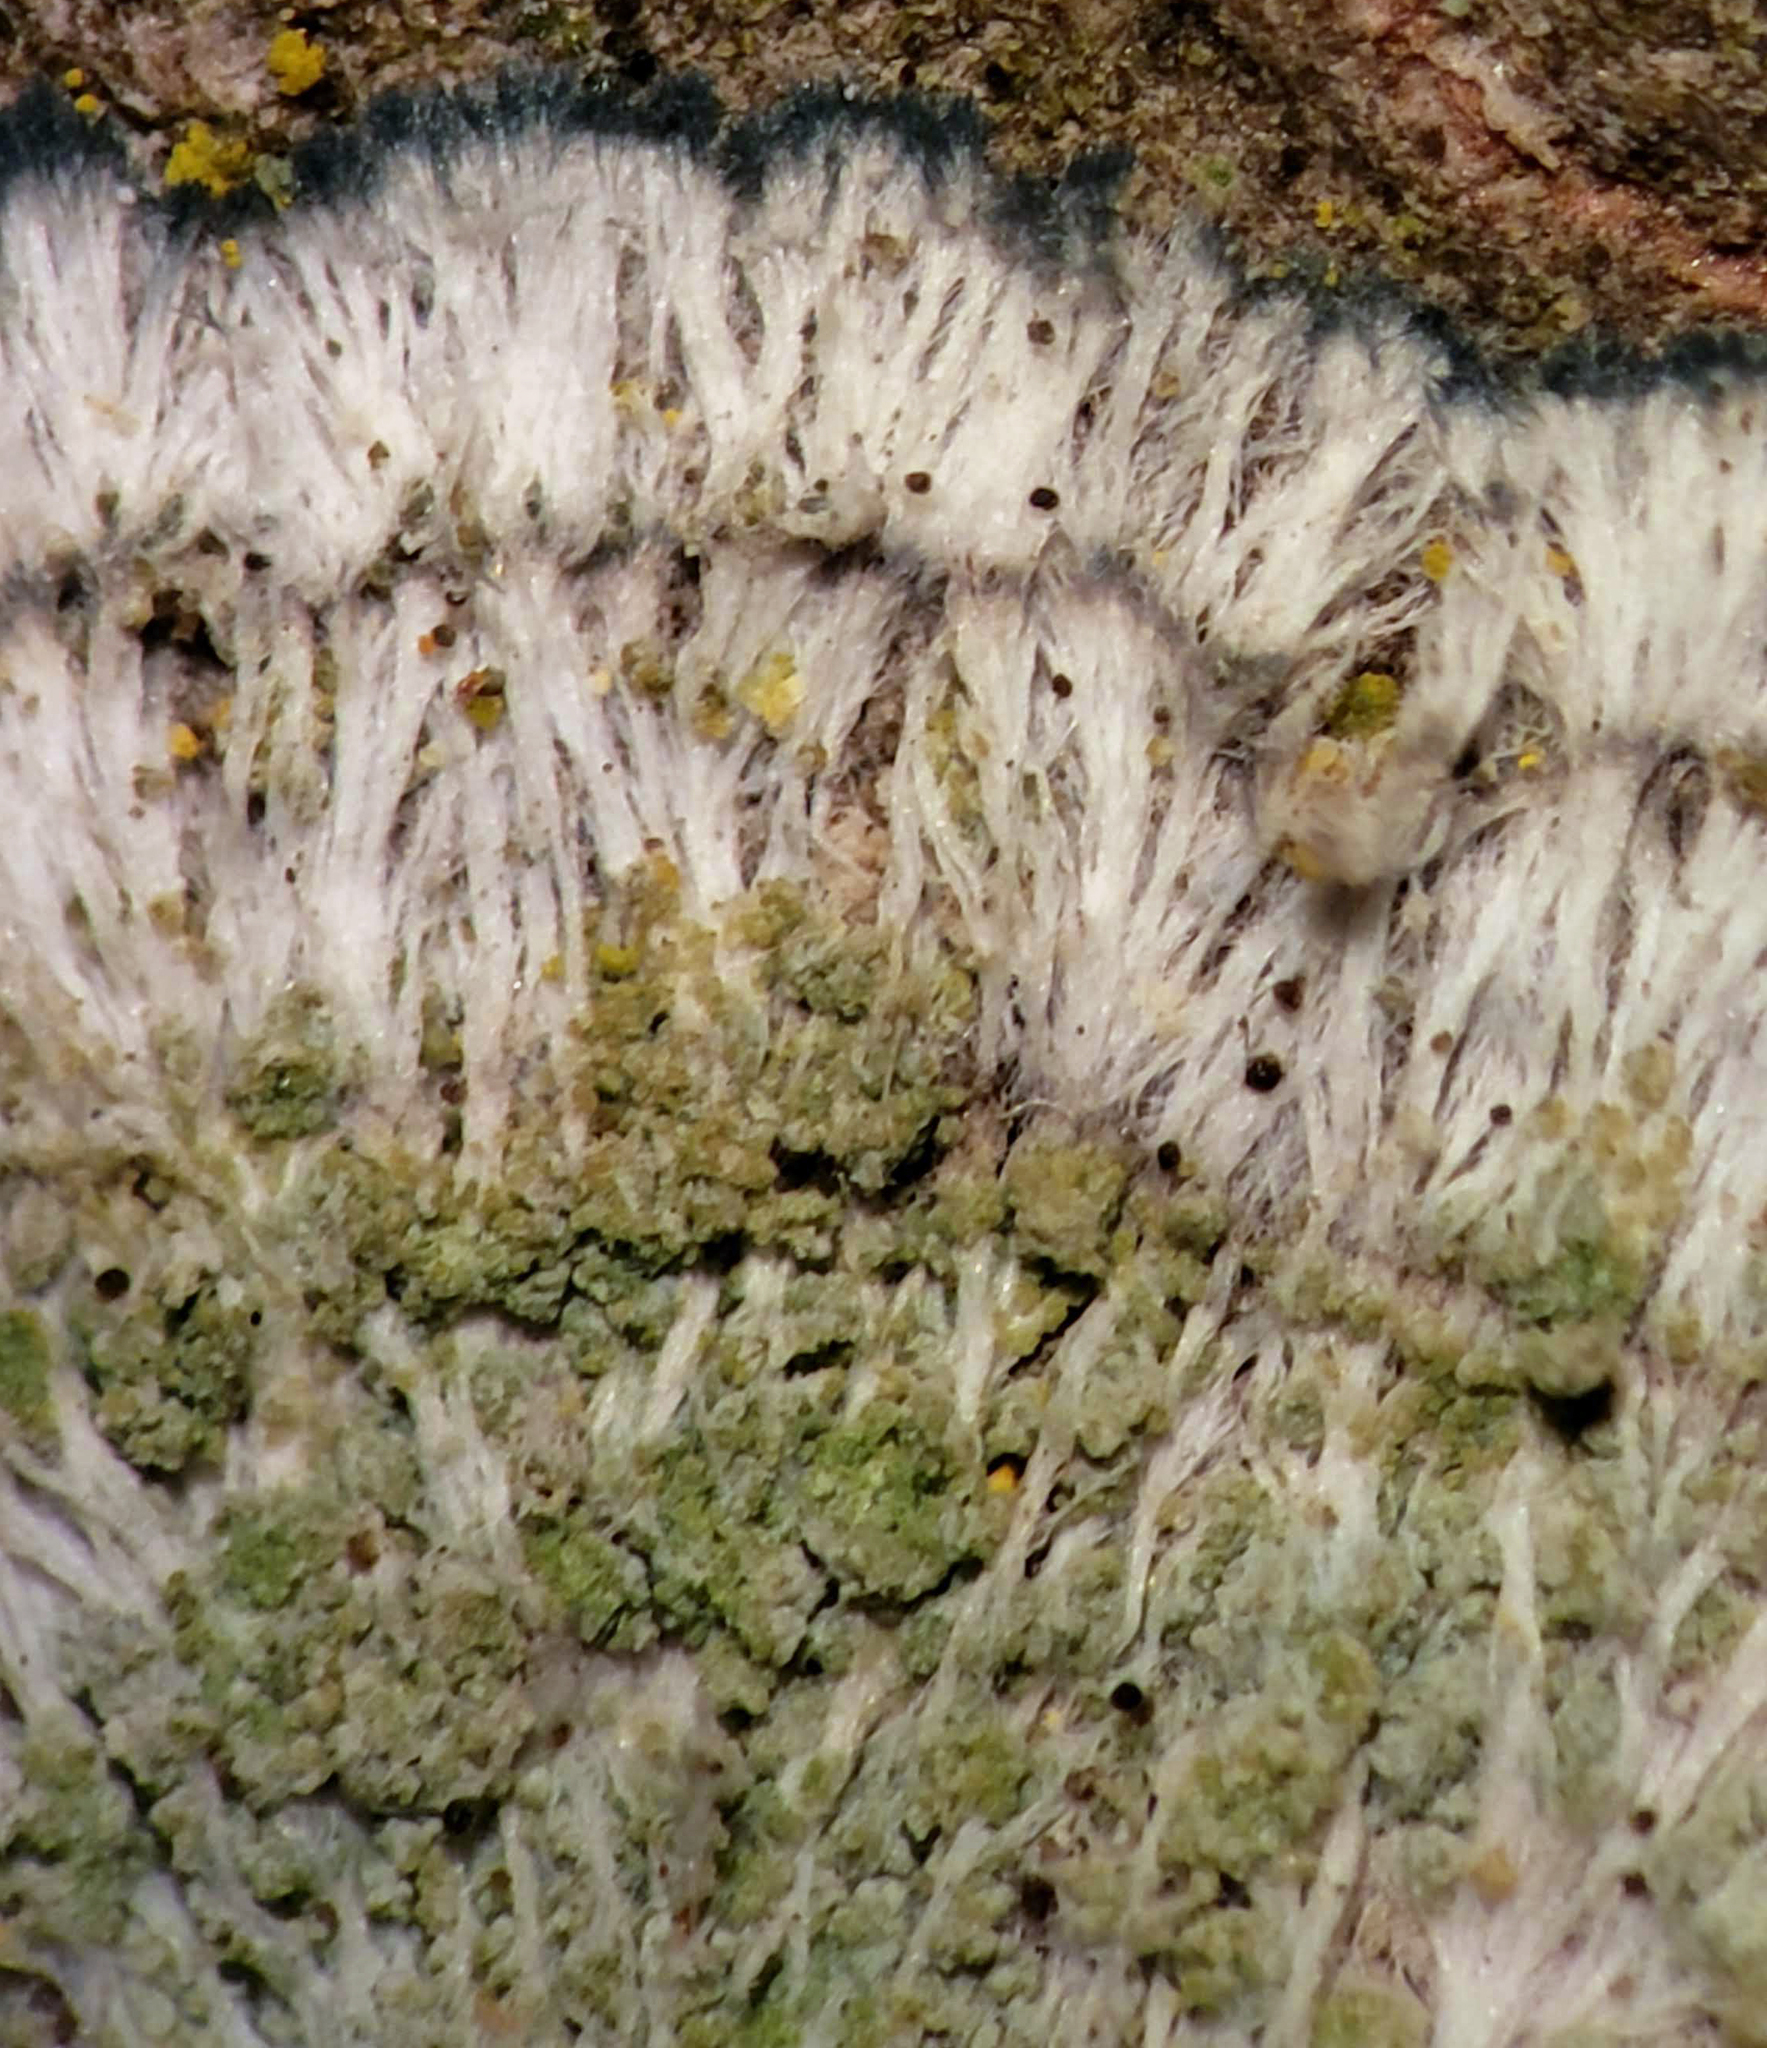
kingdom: Fungi
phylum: Ascomycota
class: Lecanoromycetes
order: Pertusariales
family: Pertusariaceae
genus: Verseghya
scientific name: Verseghya thysanophora
